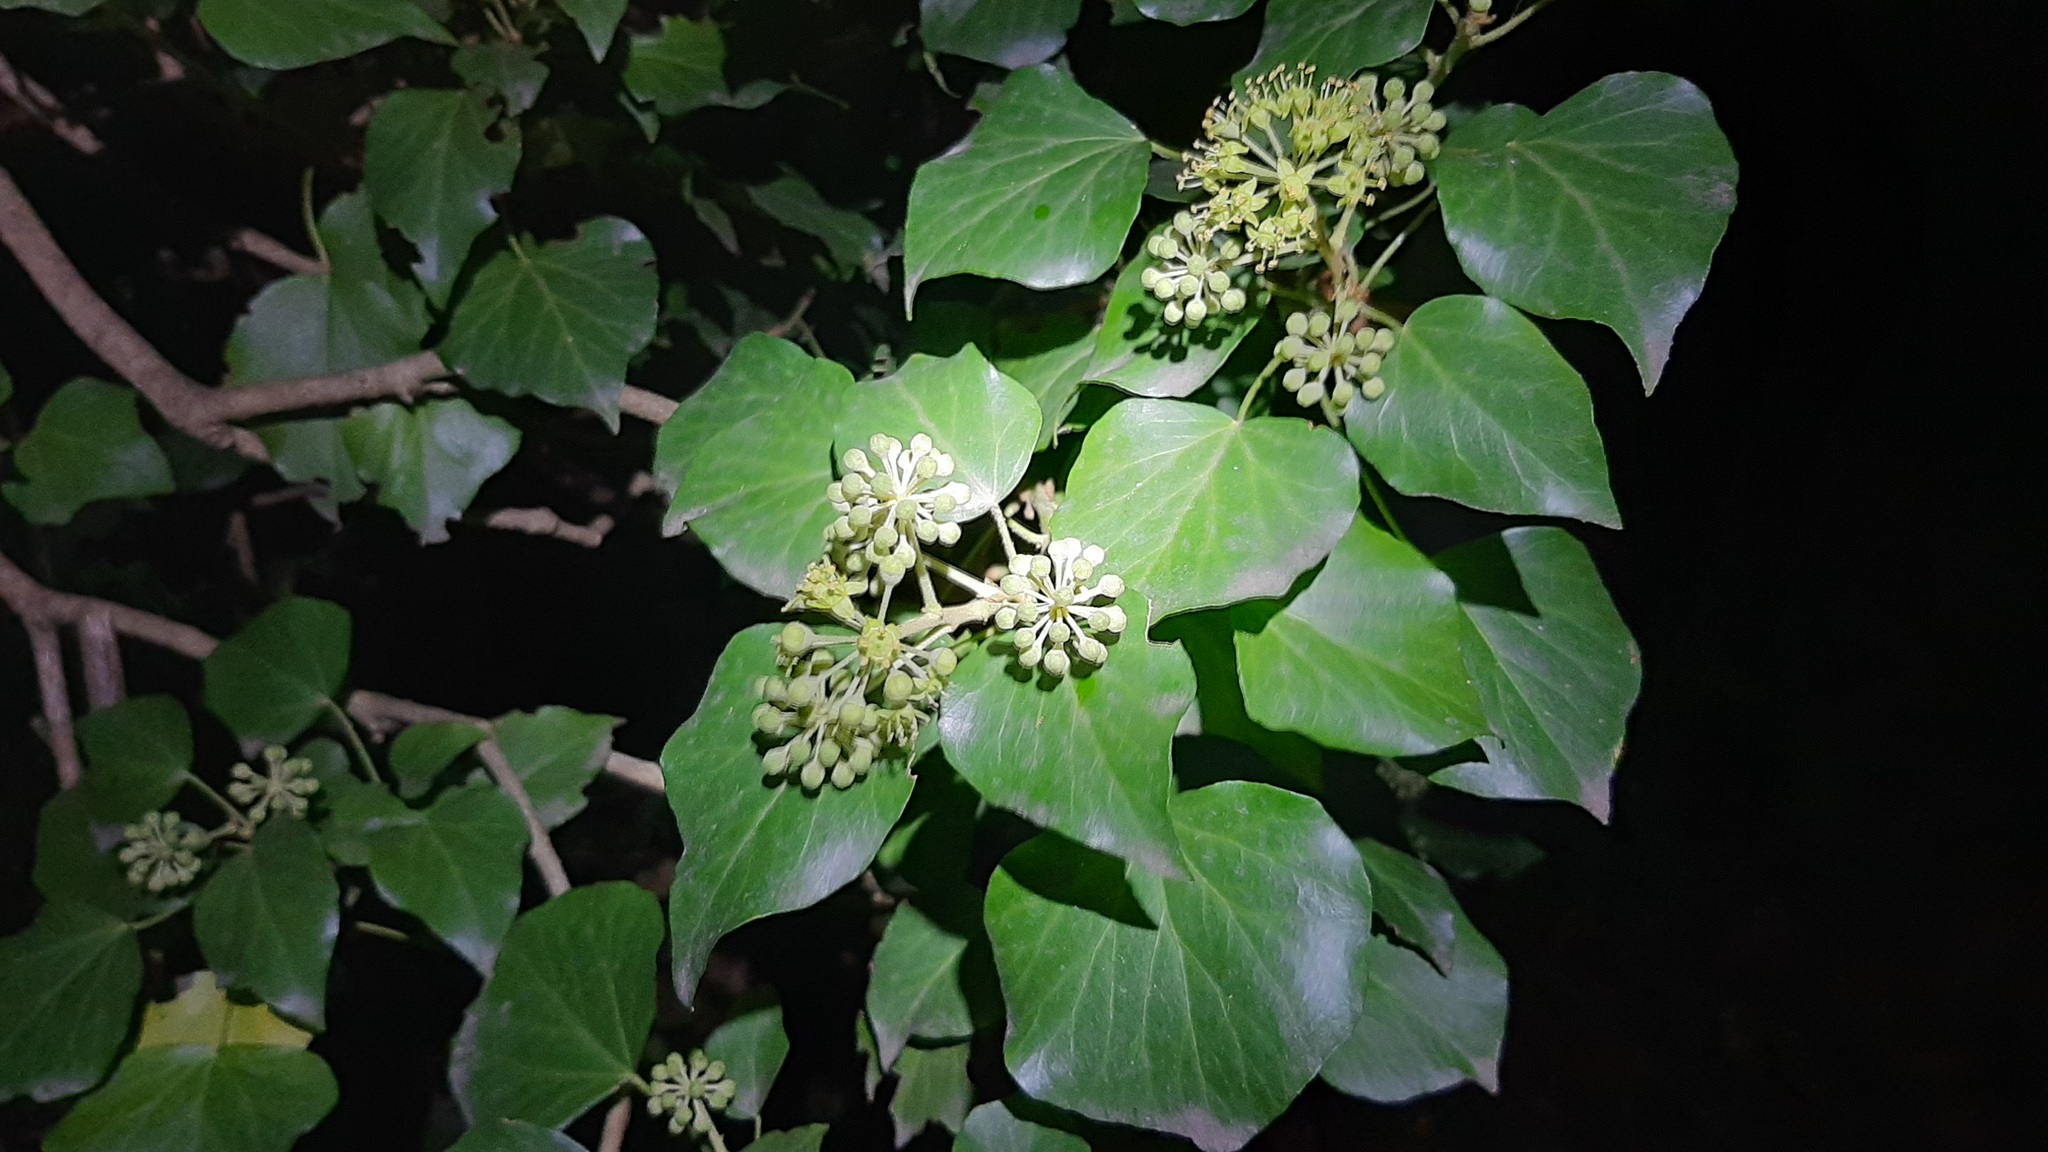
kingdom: Plantae
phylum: Tracheophyta
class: Magnoliopsida
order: Apiales
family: Araliaceae
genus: Hedera
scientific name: Hedera helix
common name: Ivy
